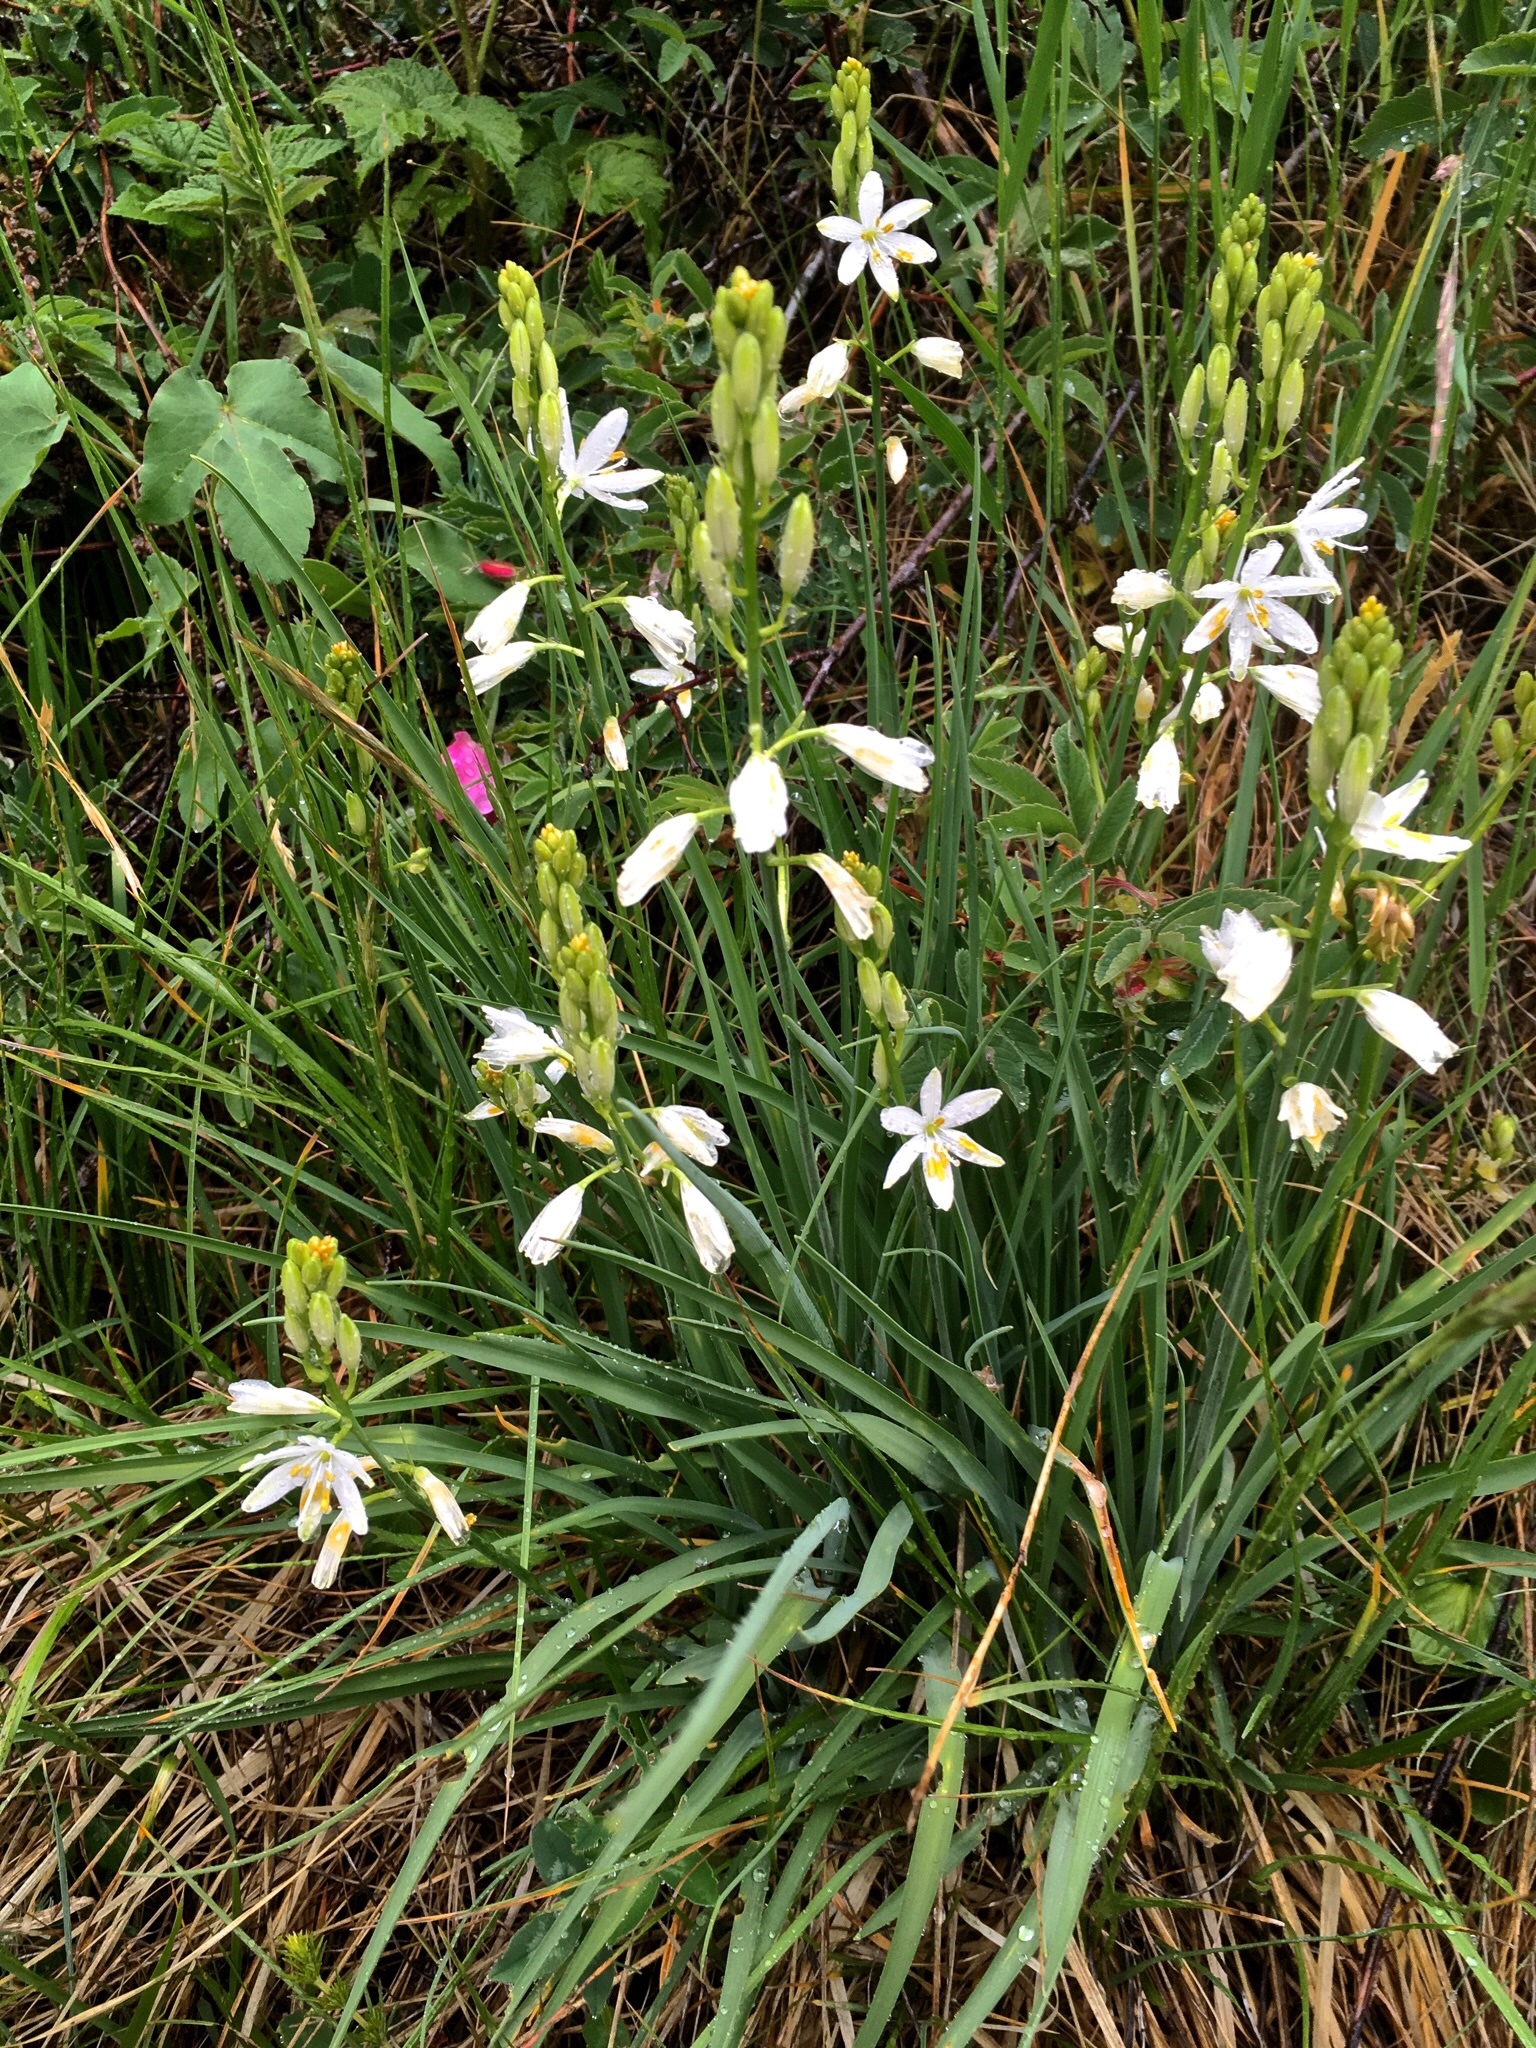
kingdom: Plantae
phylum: Tracheophyta
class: Liliopsida
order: Asparagales
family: Asparagaceae
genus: Anthericum
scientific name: Anthericum liliago
